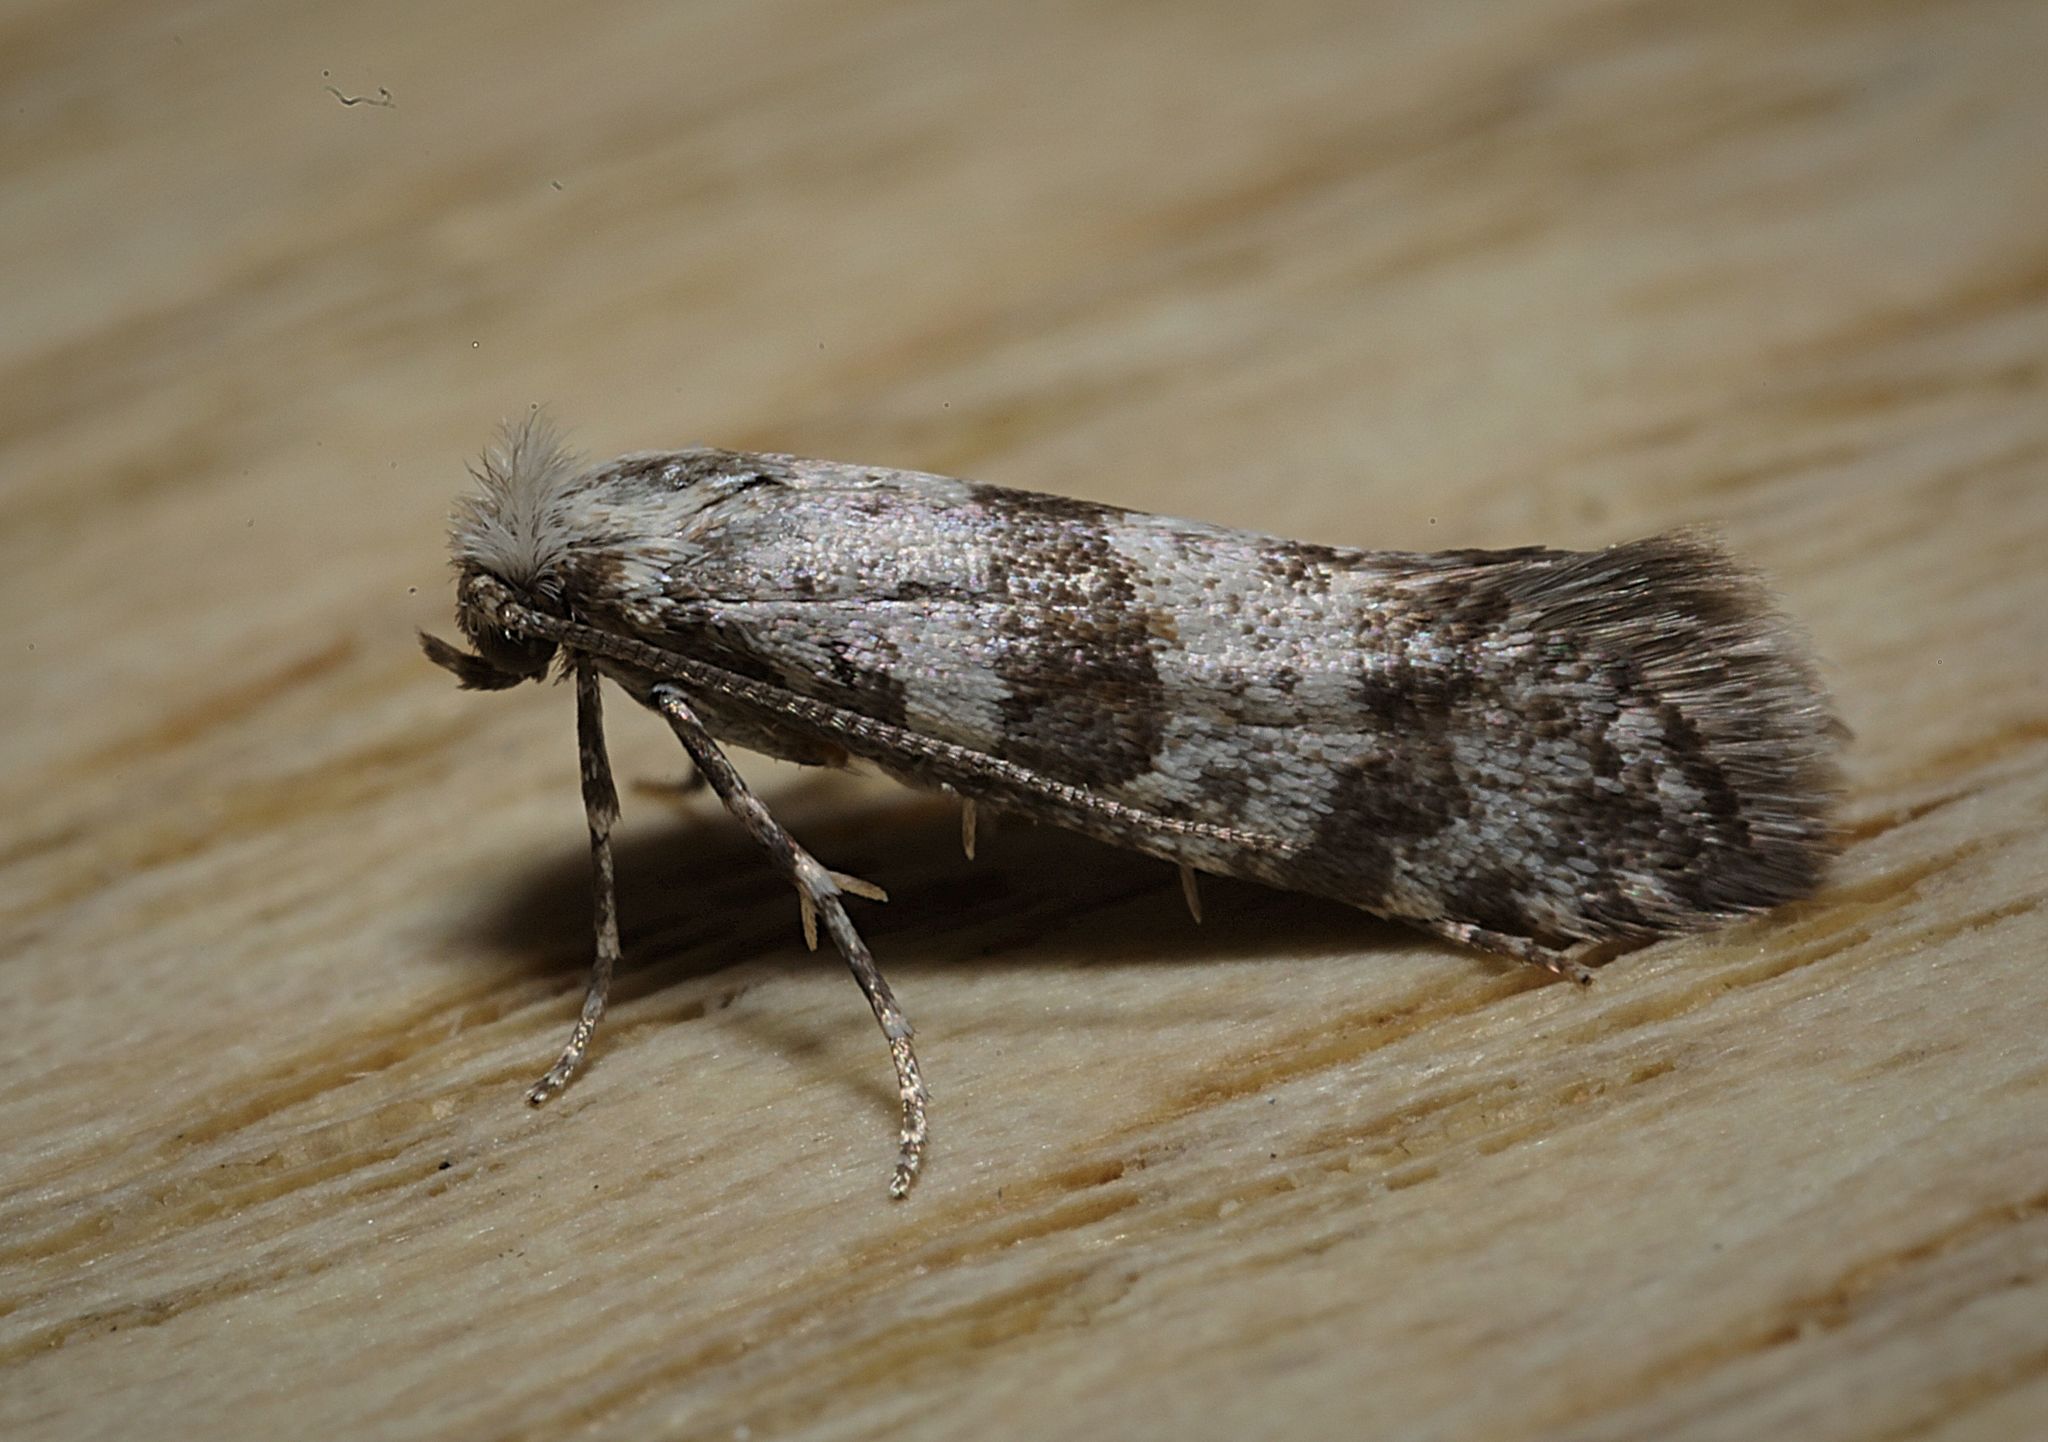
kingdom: Animalia
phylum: Arthropoda
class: Insecta
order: Lepidoptera
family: Yponomeutidae
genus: Scythropia
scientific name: Scythropia crataegella
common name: Hawthorn moth
